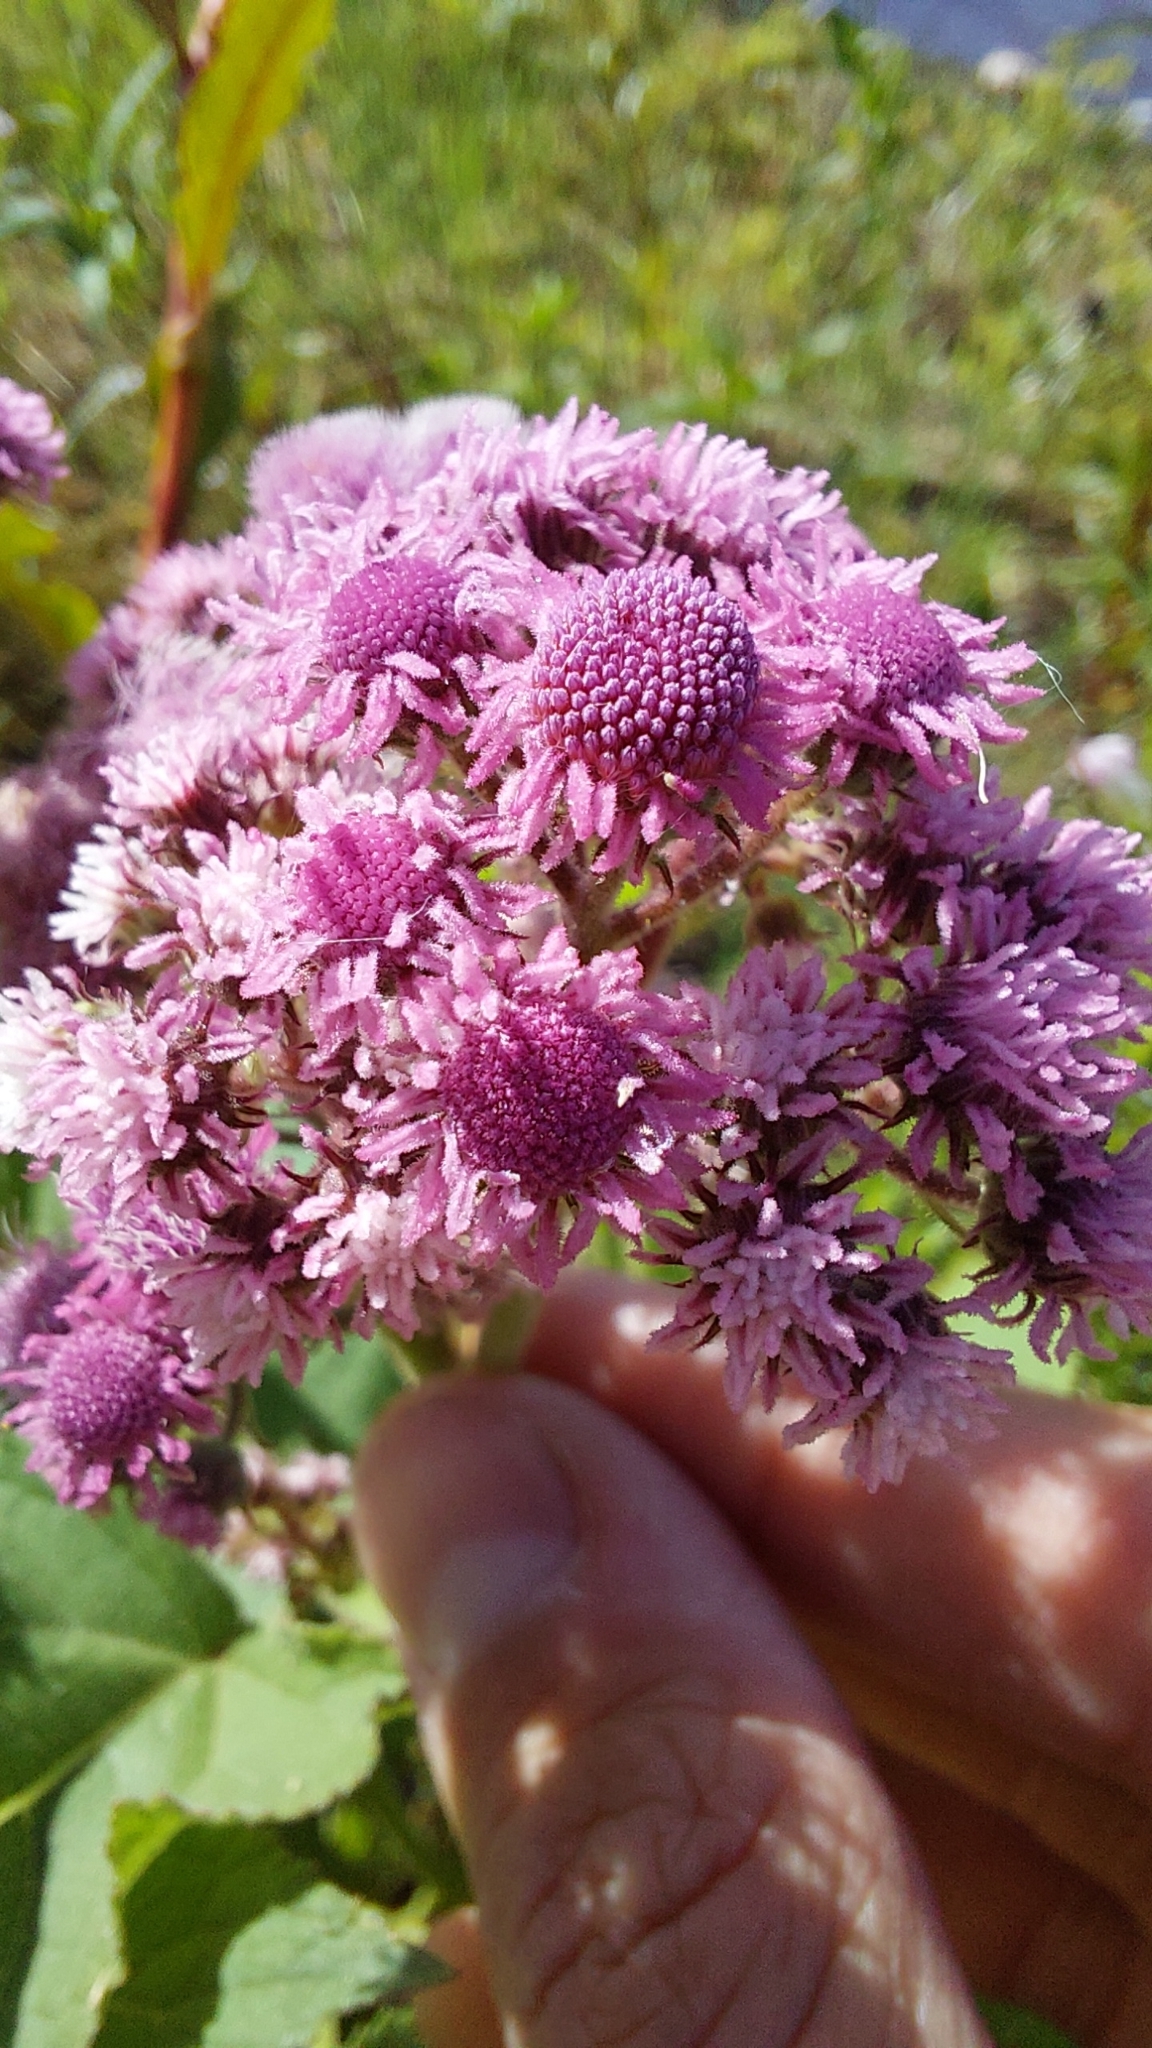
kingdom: Plantae
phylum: Tracheophyta
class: Magnoliopsida
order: Asterales
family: Asteraceae
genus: Urolepis
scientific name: Urolepis hecatantha
